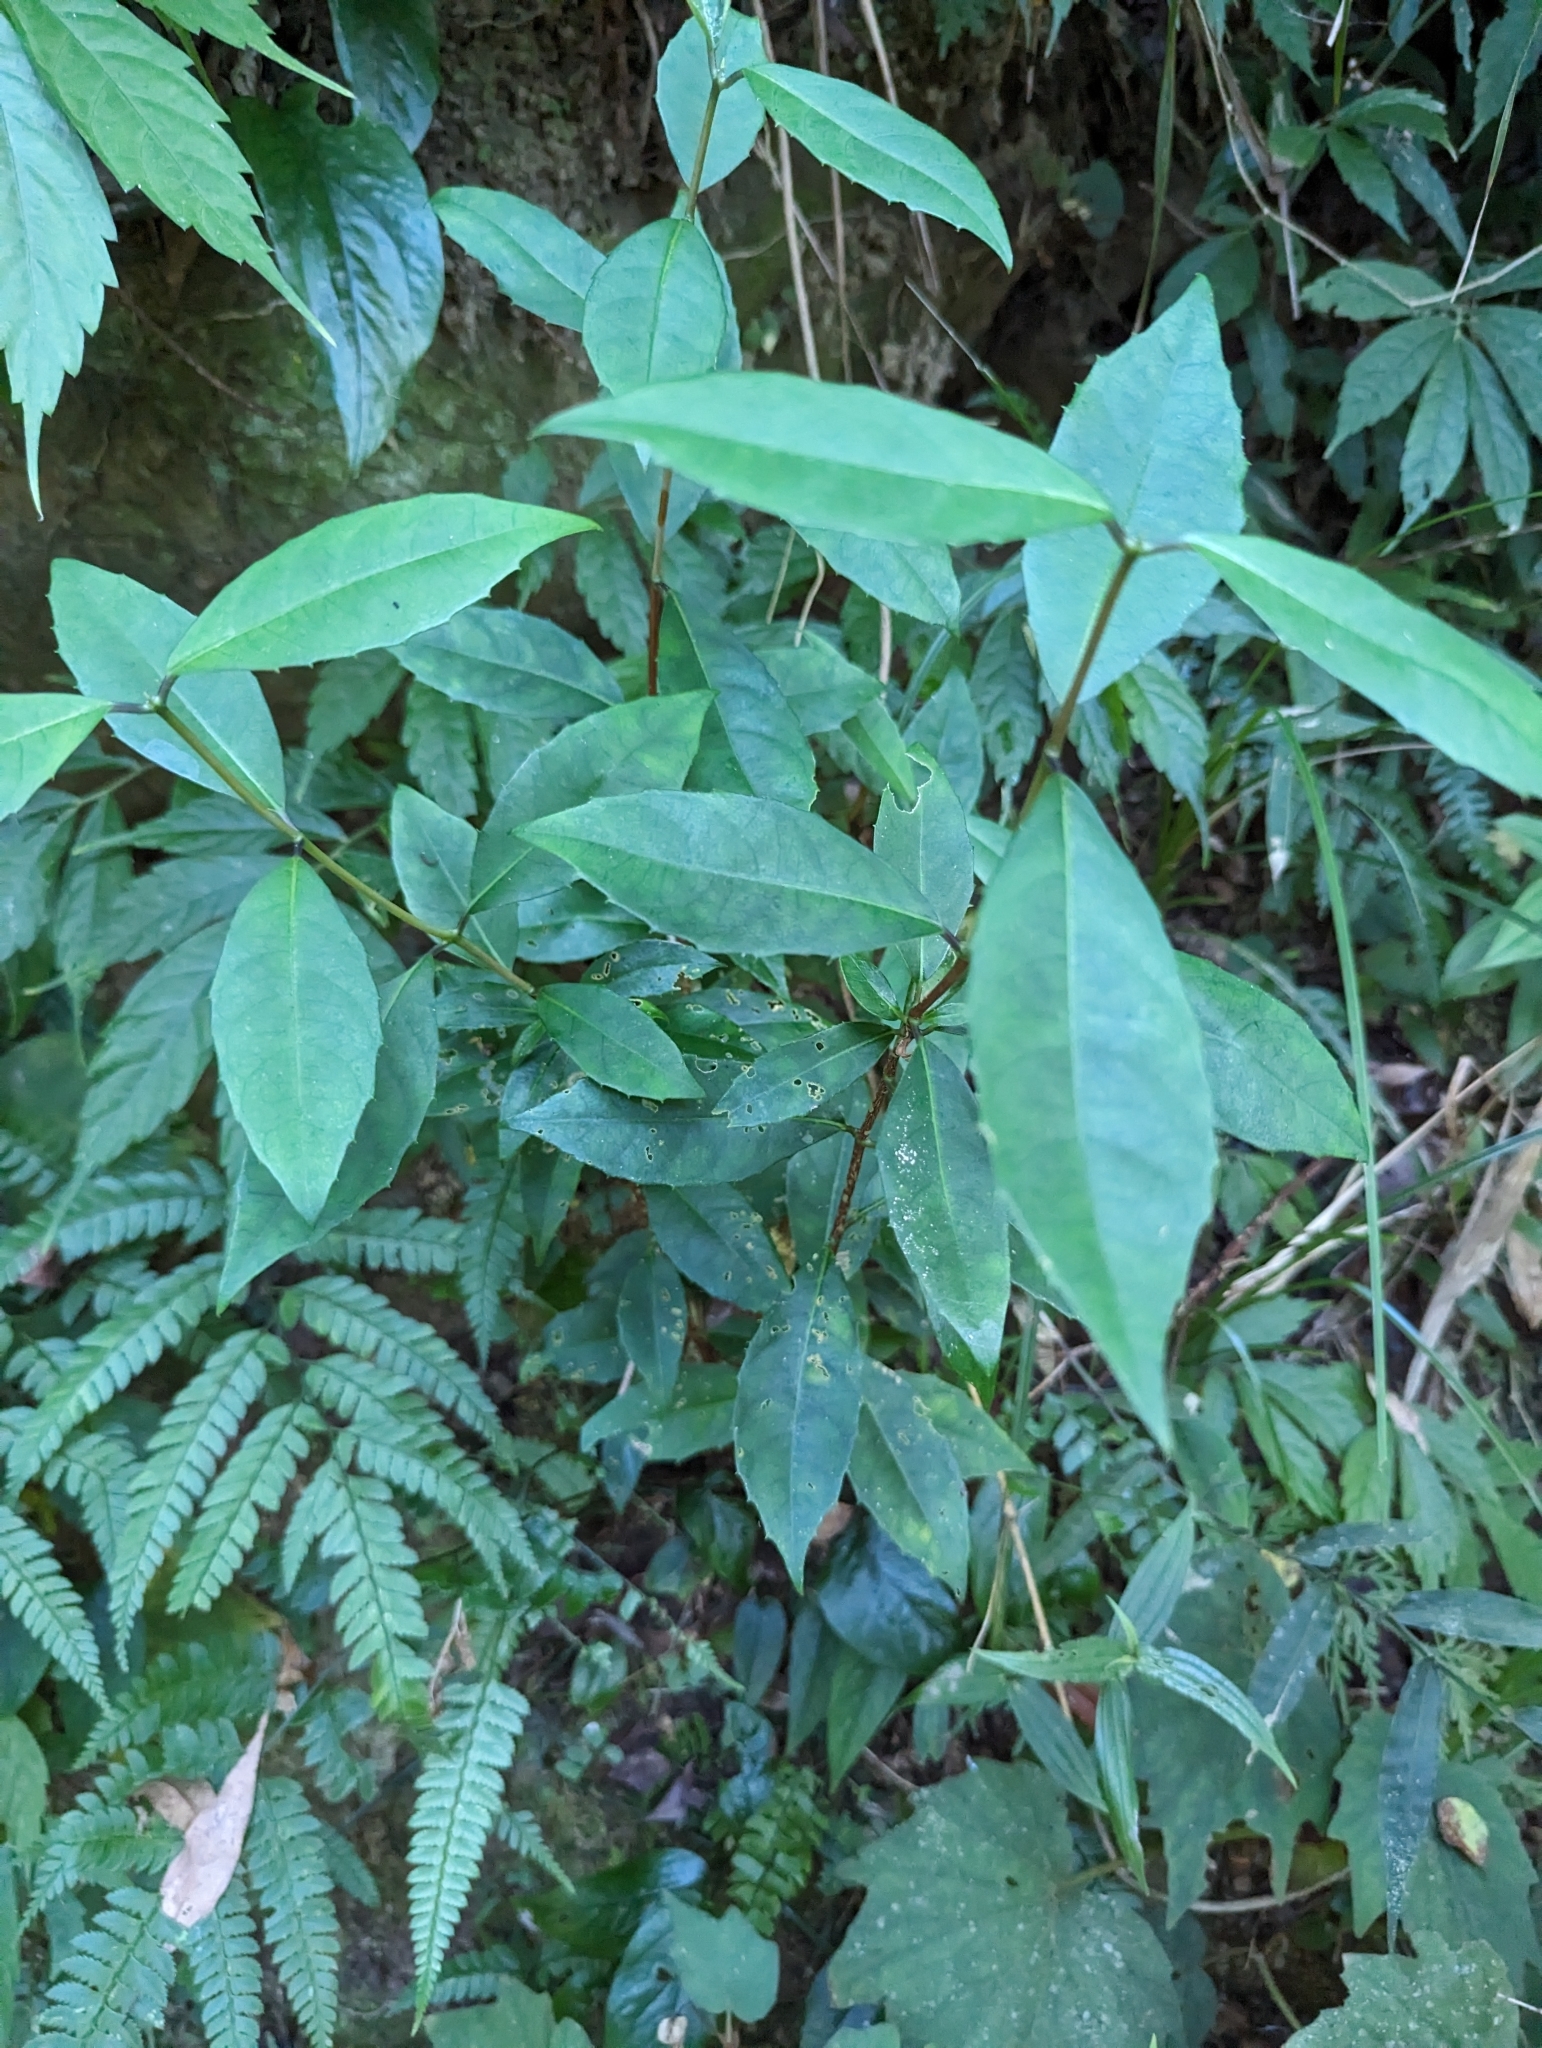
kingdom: Plantae
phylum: Tracheophyta
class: Magnoliopsida
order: Cornales
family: Hydrangeaceae
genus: Hydrangea
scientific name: Hydrangea chinensis
